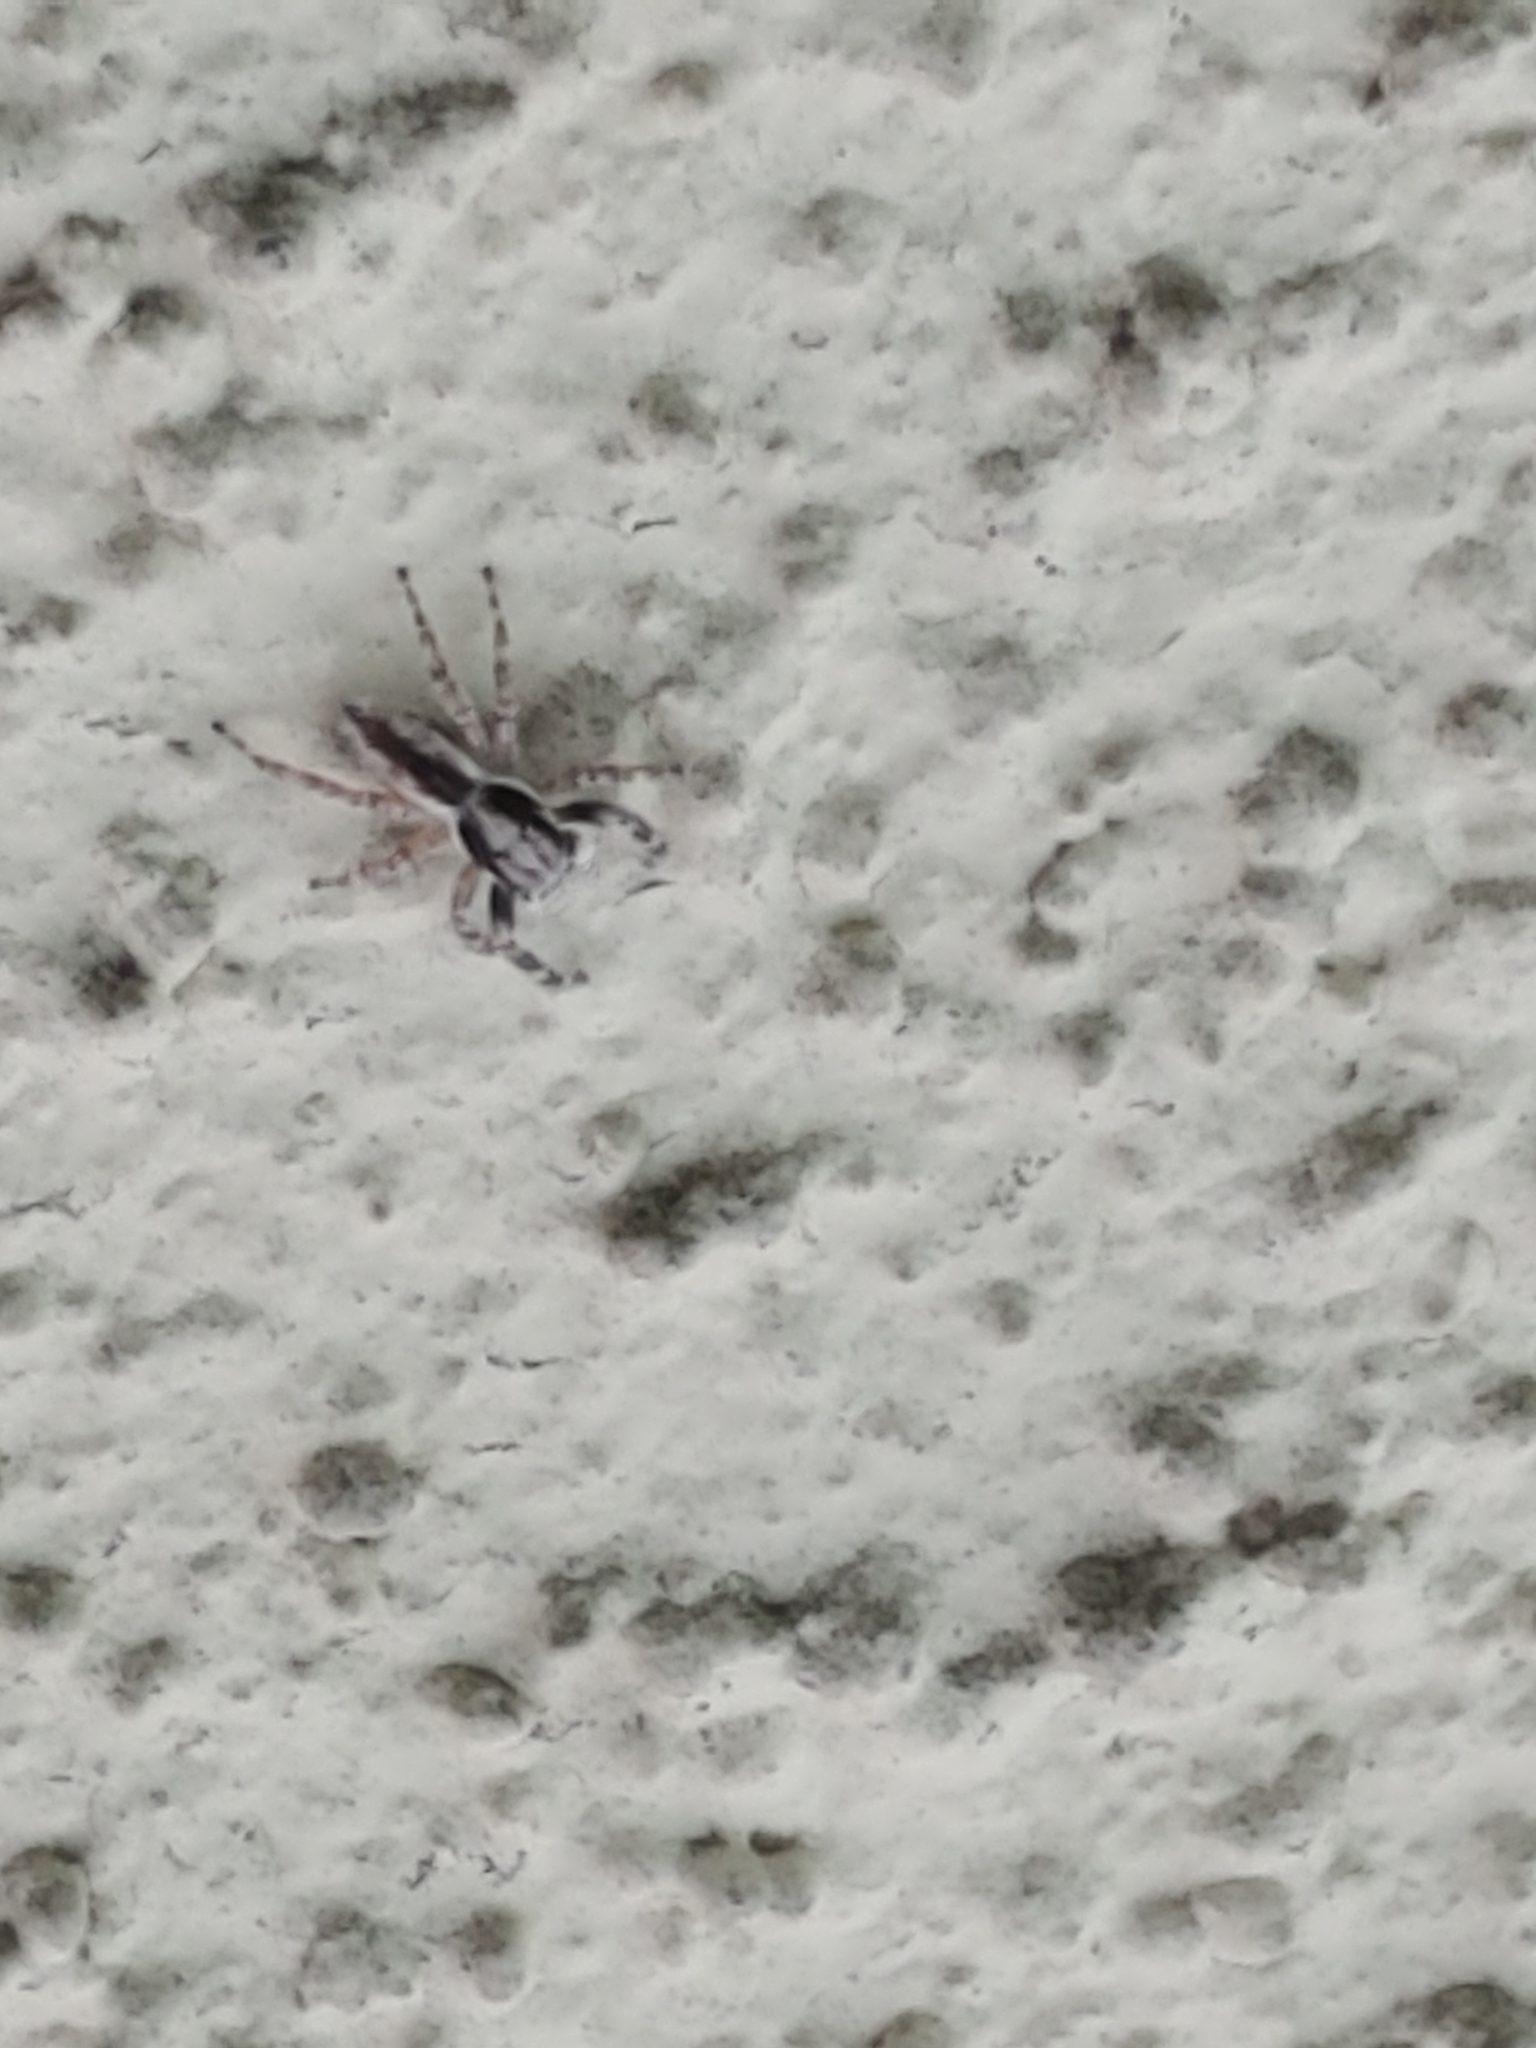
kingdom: Animalia
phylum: Arthropoda
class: Arachnida
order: Araneae
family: Salticidae
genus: Menemerus
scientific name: Menemerus bivittatus
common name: Gray wall jumper
